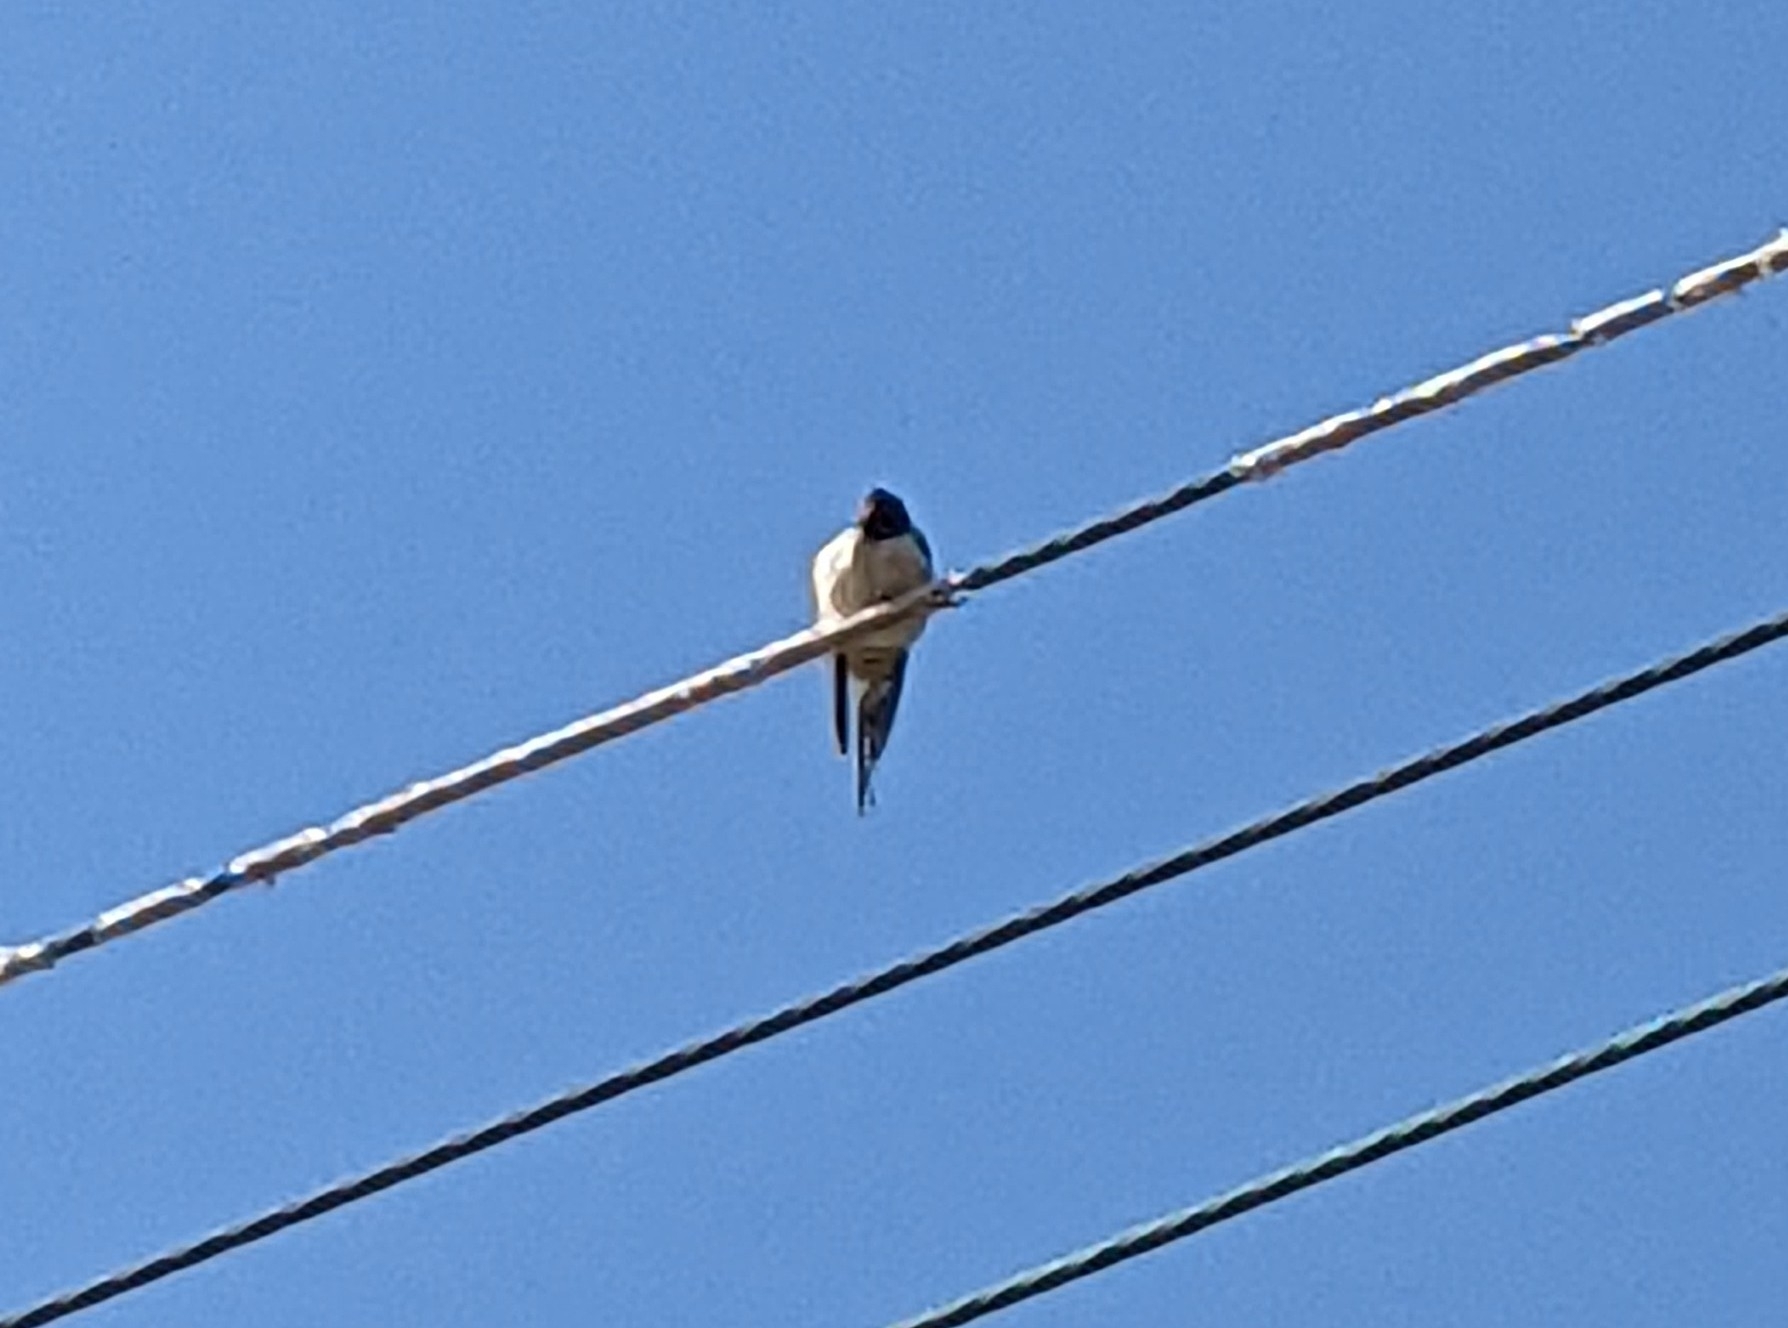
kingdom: Animalia
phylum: Chordata
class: Aves
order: Passeriformes
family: Hirundinidae
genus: Hirundo
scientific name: Hirundo rustica
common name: Barn swallow
